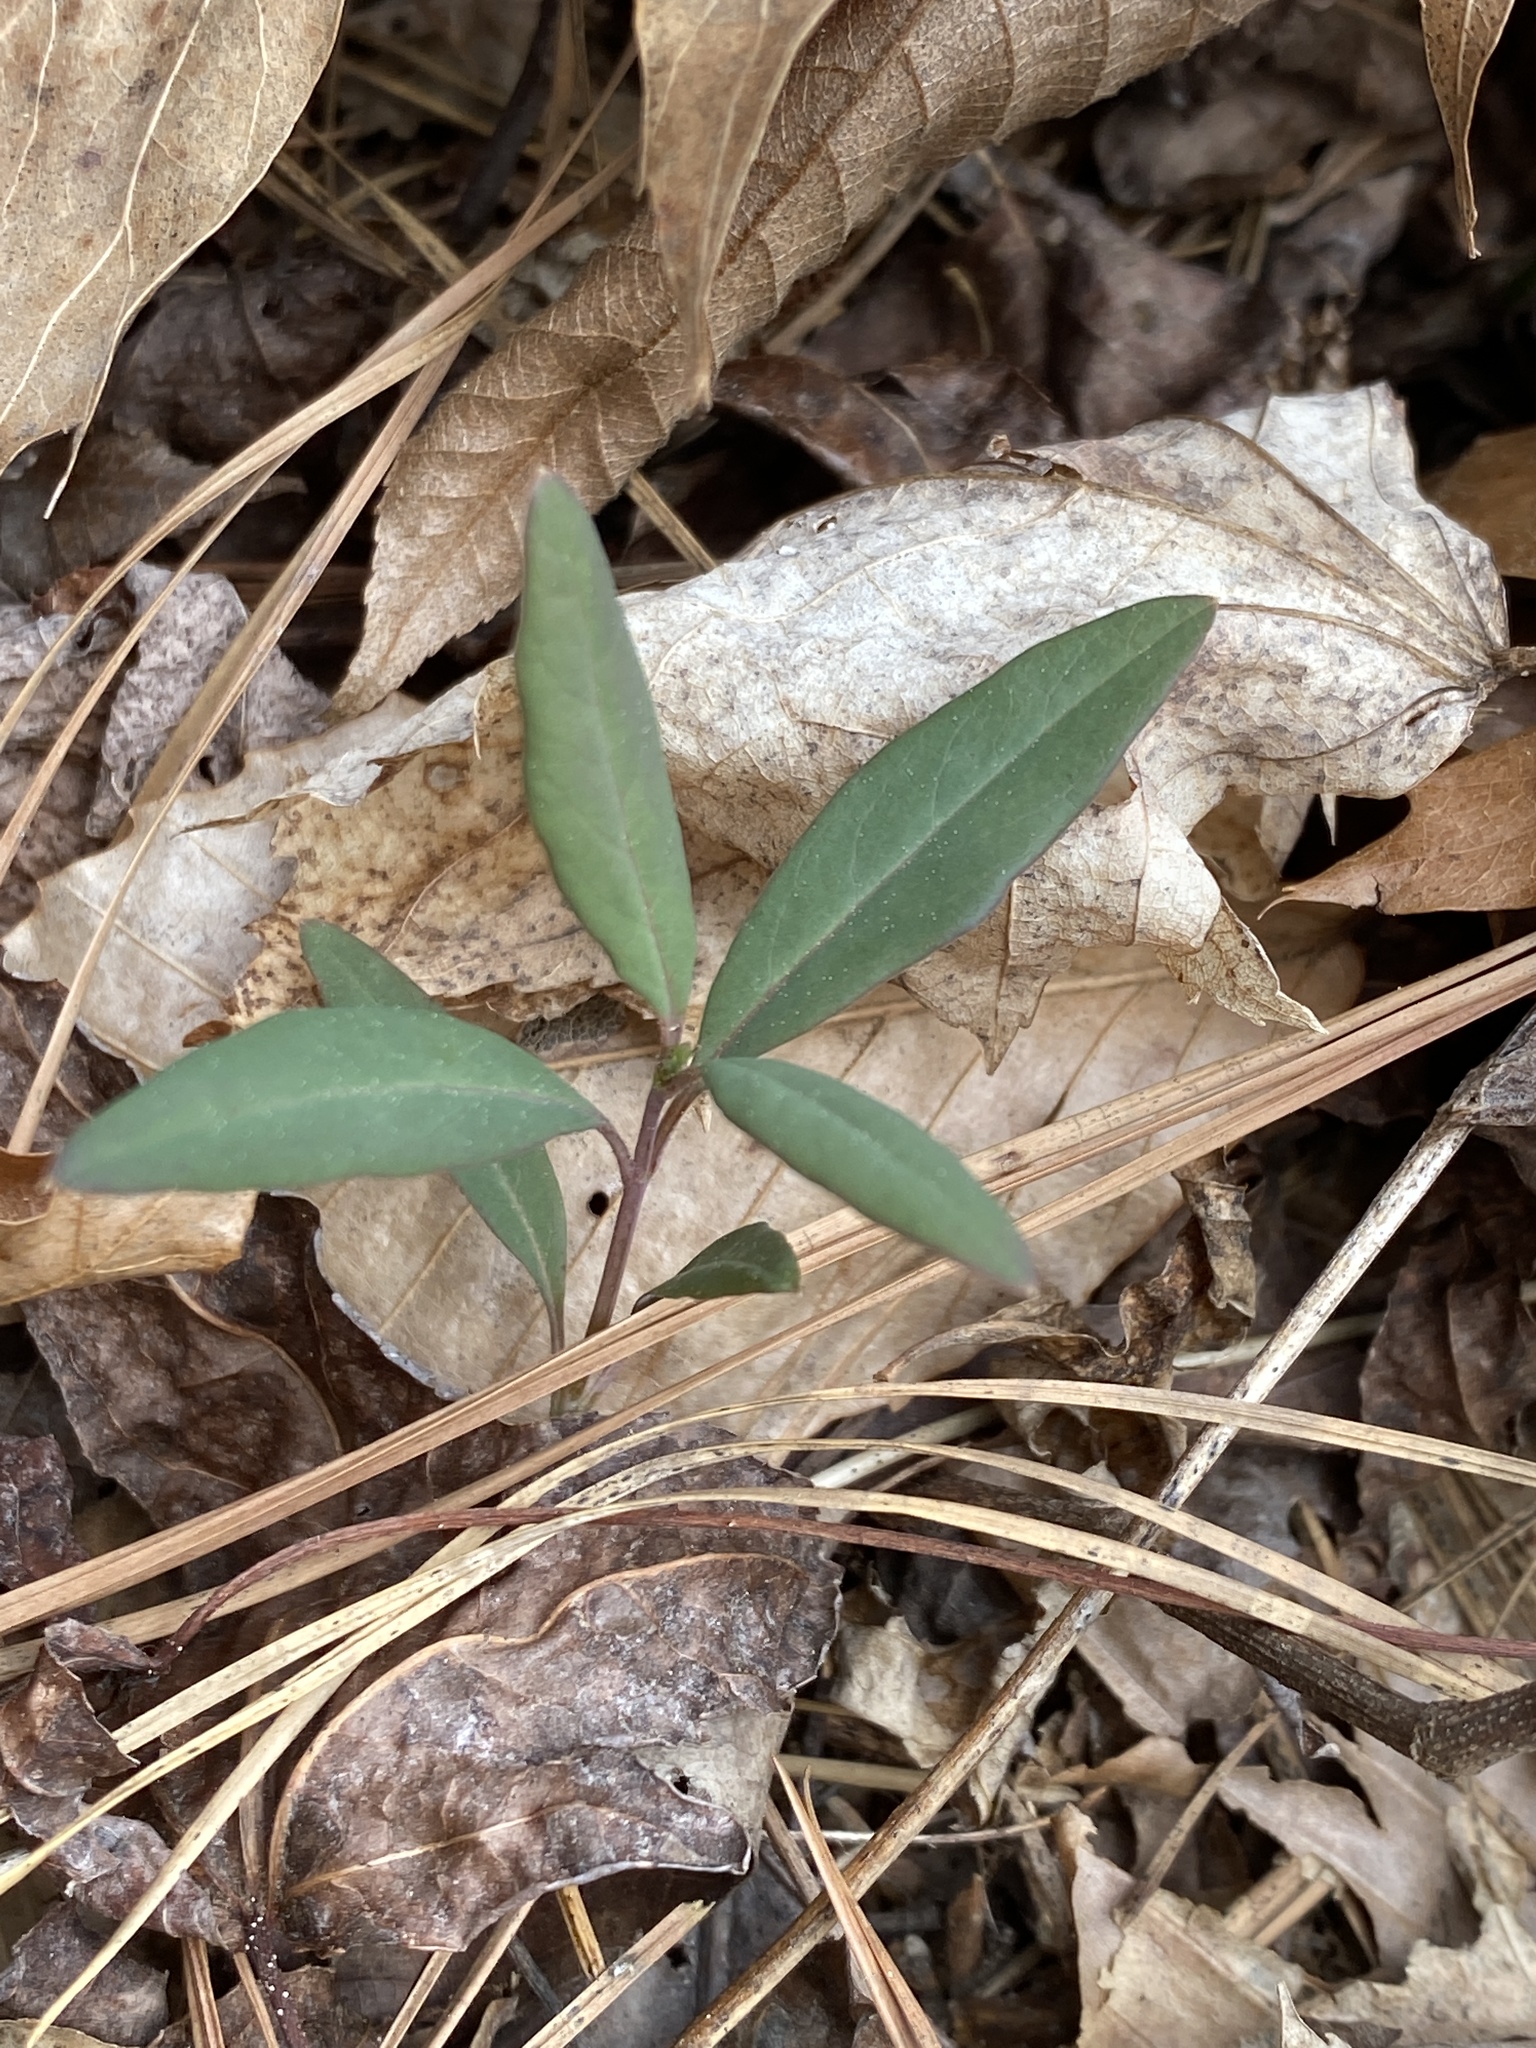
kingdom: Plantae
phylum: Tracheophyta
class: Magnoliopsida
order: Dipsacales
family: Caprifoliaceae
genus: Lonicera
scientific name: Lonicera sempervirens
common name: Coral honeysuckle
